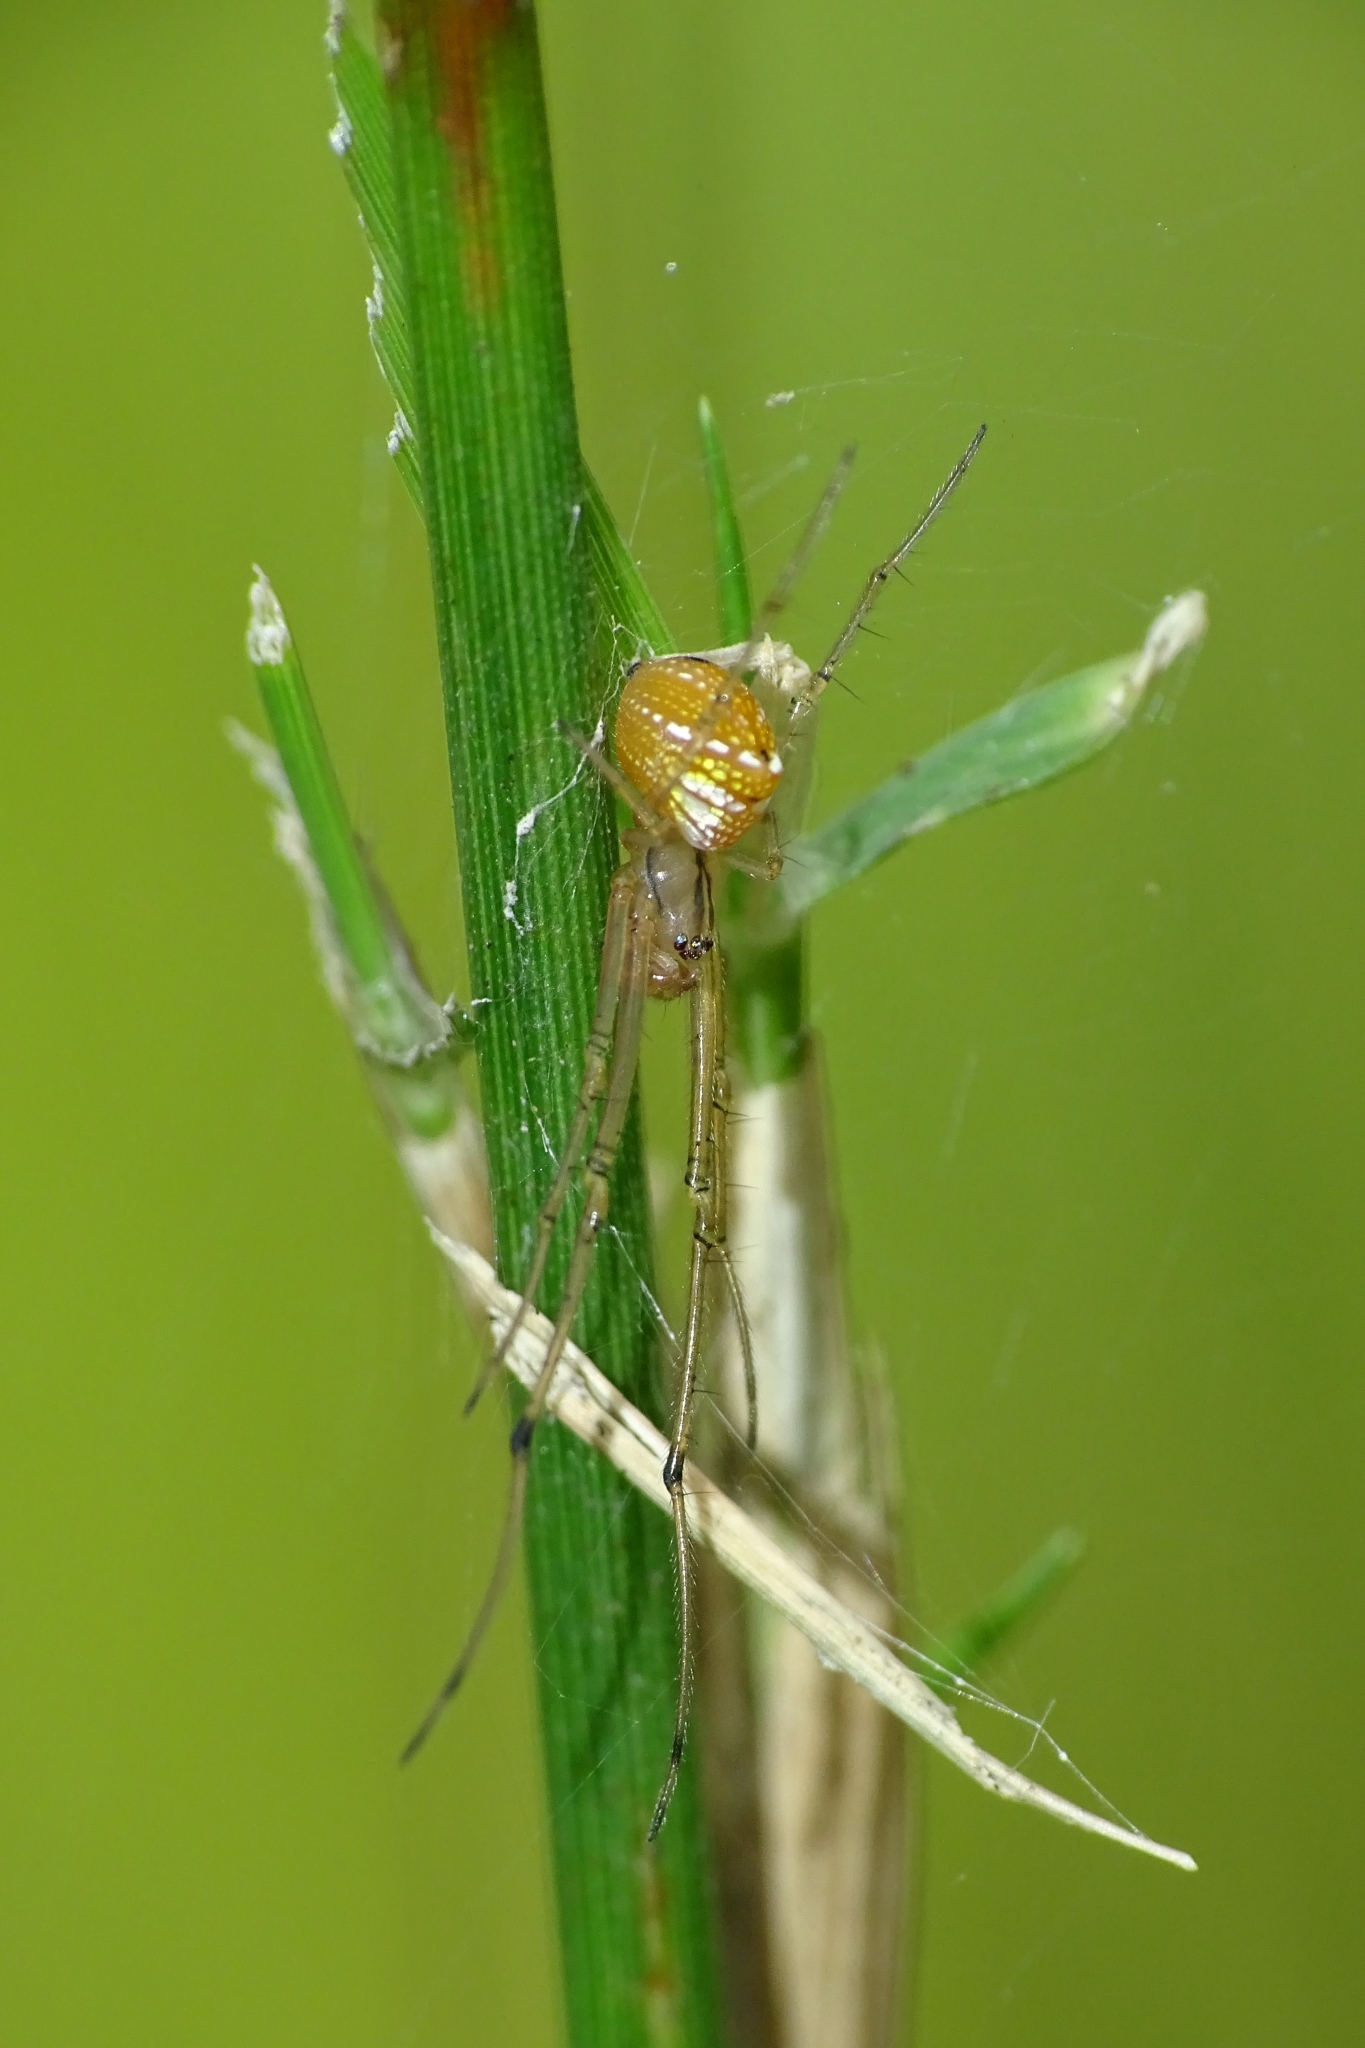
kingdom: Animalia
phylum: Arthropoda
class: Arachnida
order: Araneae
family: Tetragnathidae
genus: Tylorida
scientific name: Tylorida striata
